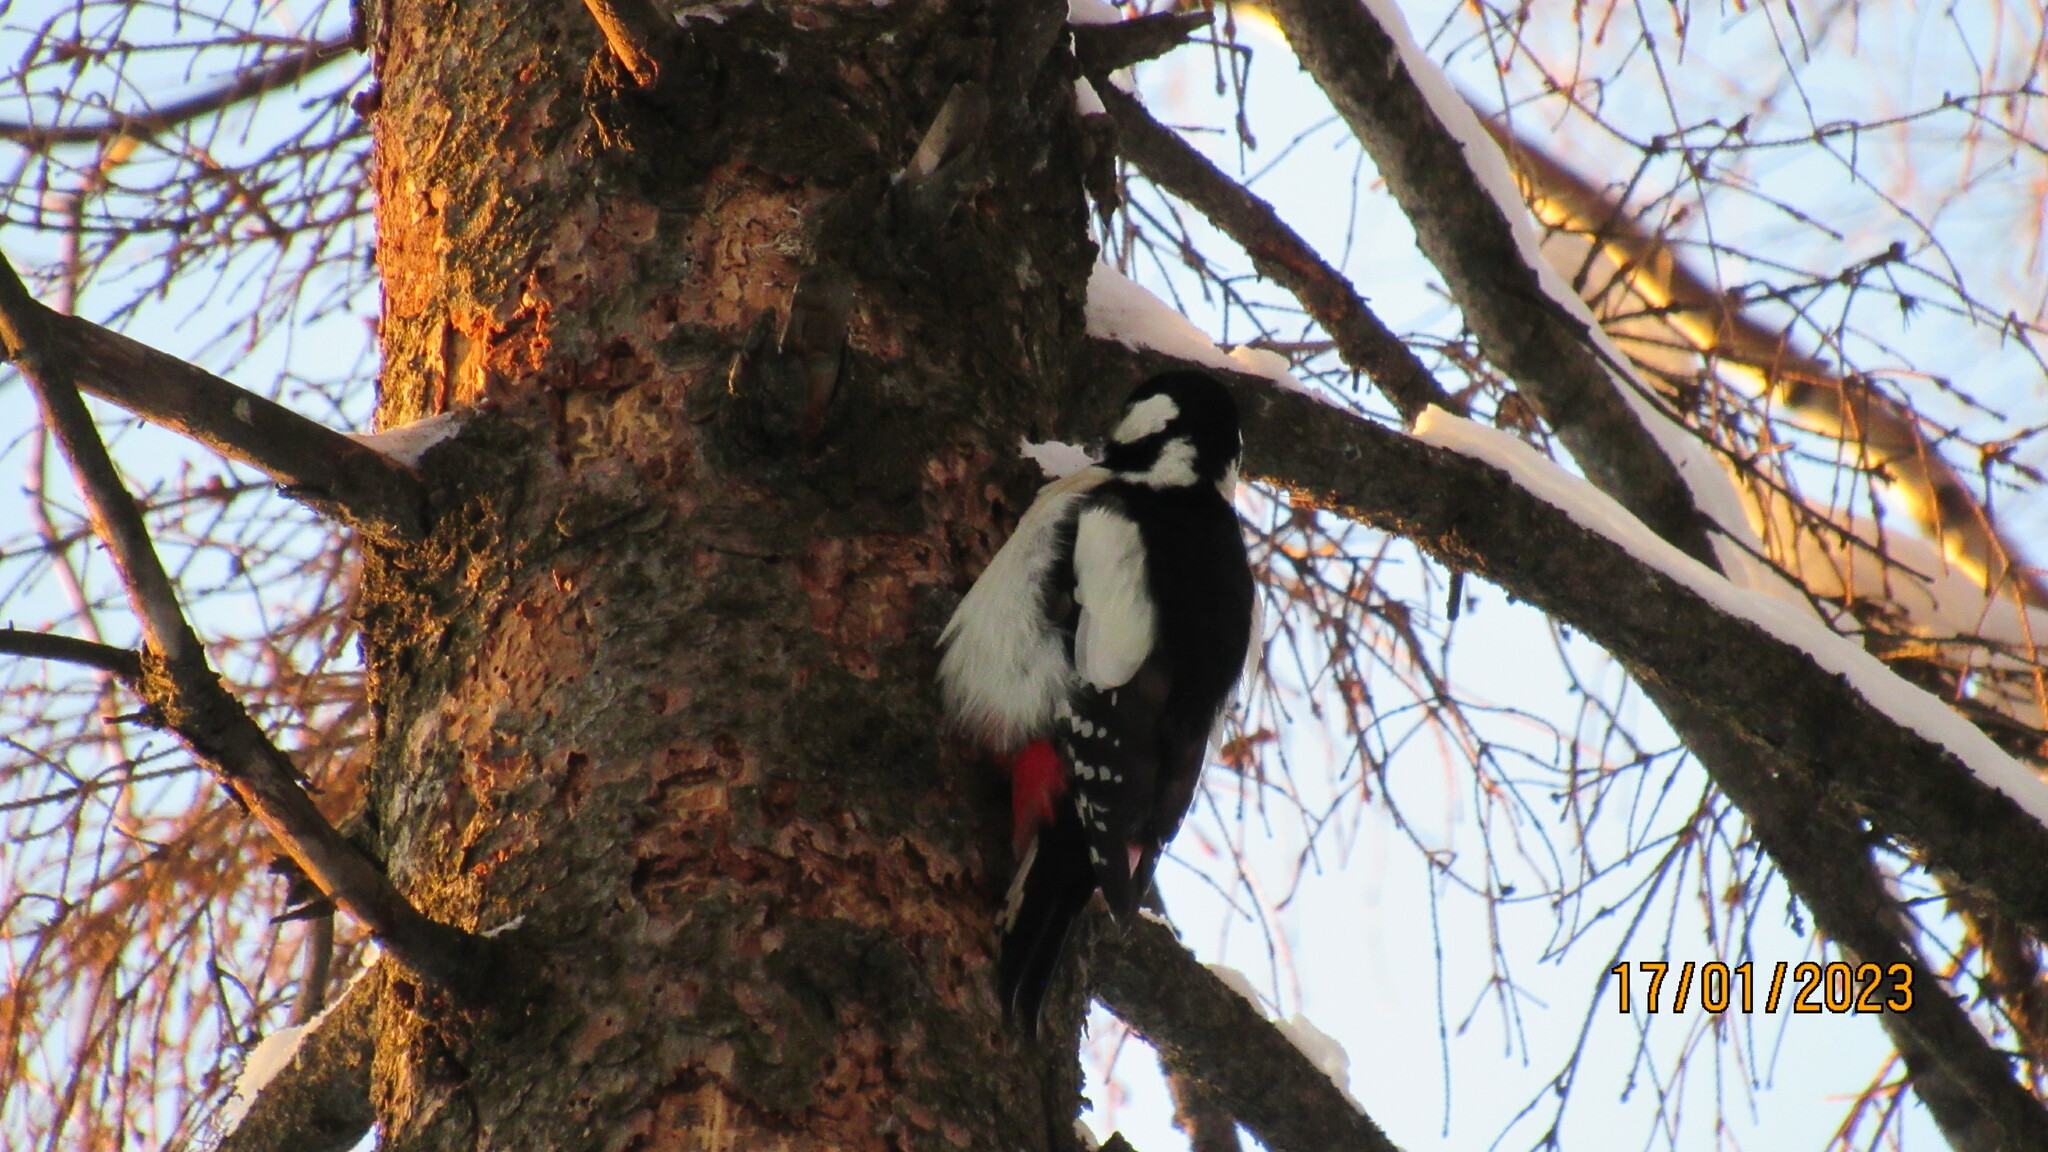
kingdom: Animalia
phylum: Chordata
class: Aves
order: Piciformes
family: Picidae
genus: Dendrocopos
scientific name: Dendrocopos major
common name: Great spotted woodpecker
